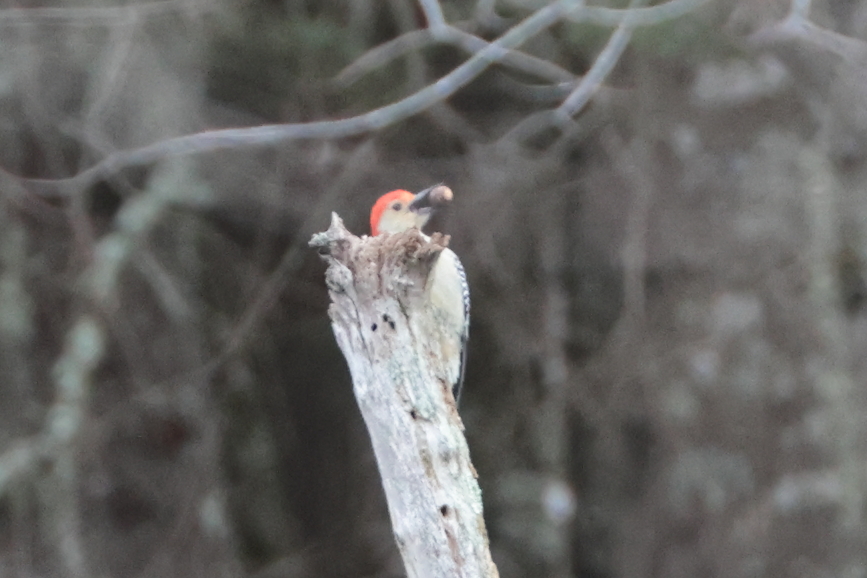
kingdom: Animalia
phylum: Chordata
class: Aves
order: Piciformes
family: Picidae
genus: Melanerpes
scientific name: Melanerpes carolinus
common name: Red-bellied woodpecker
